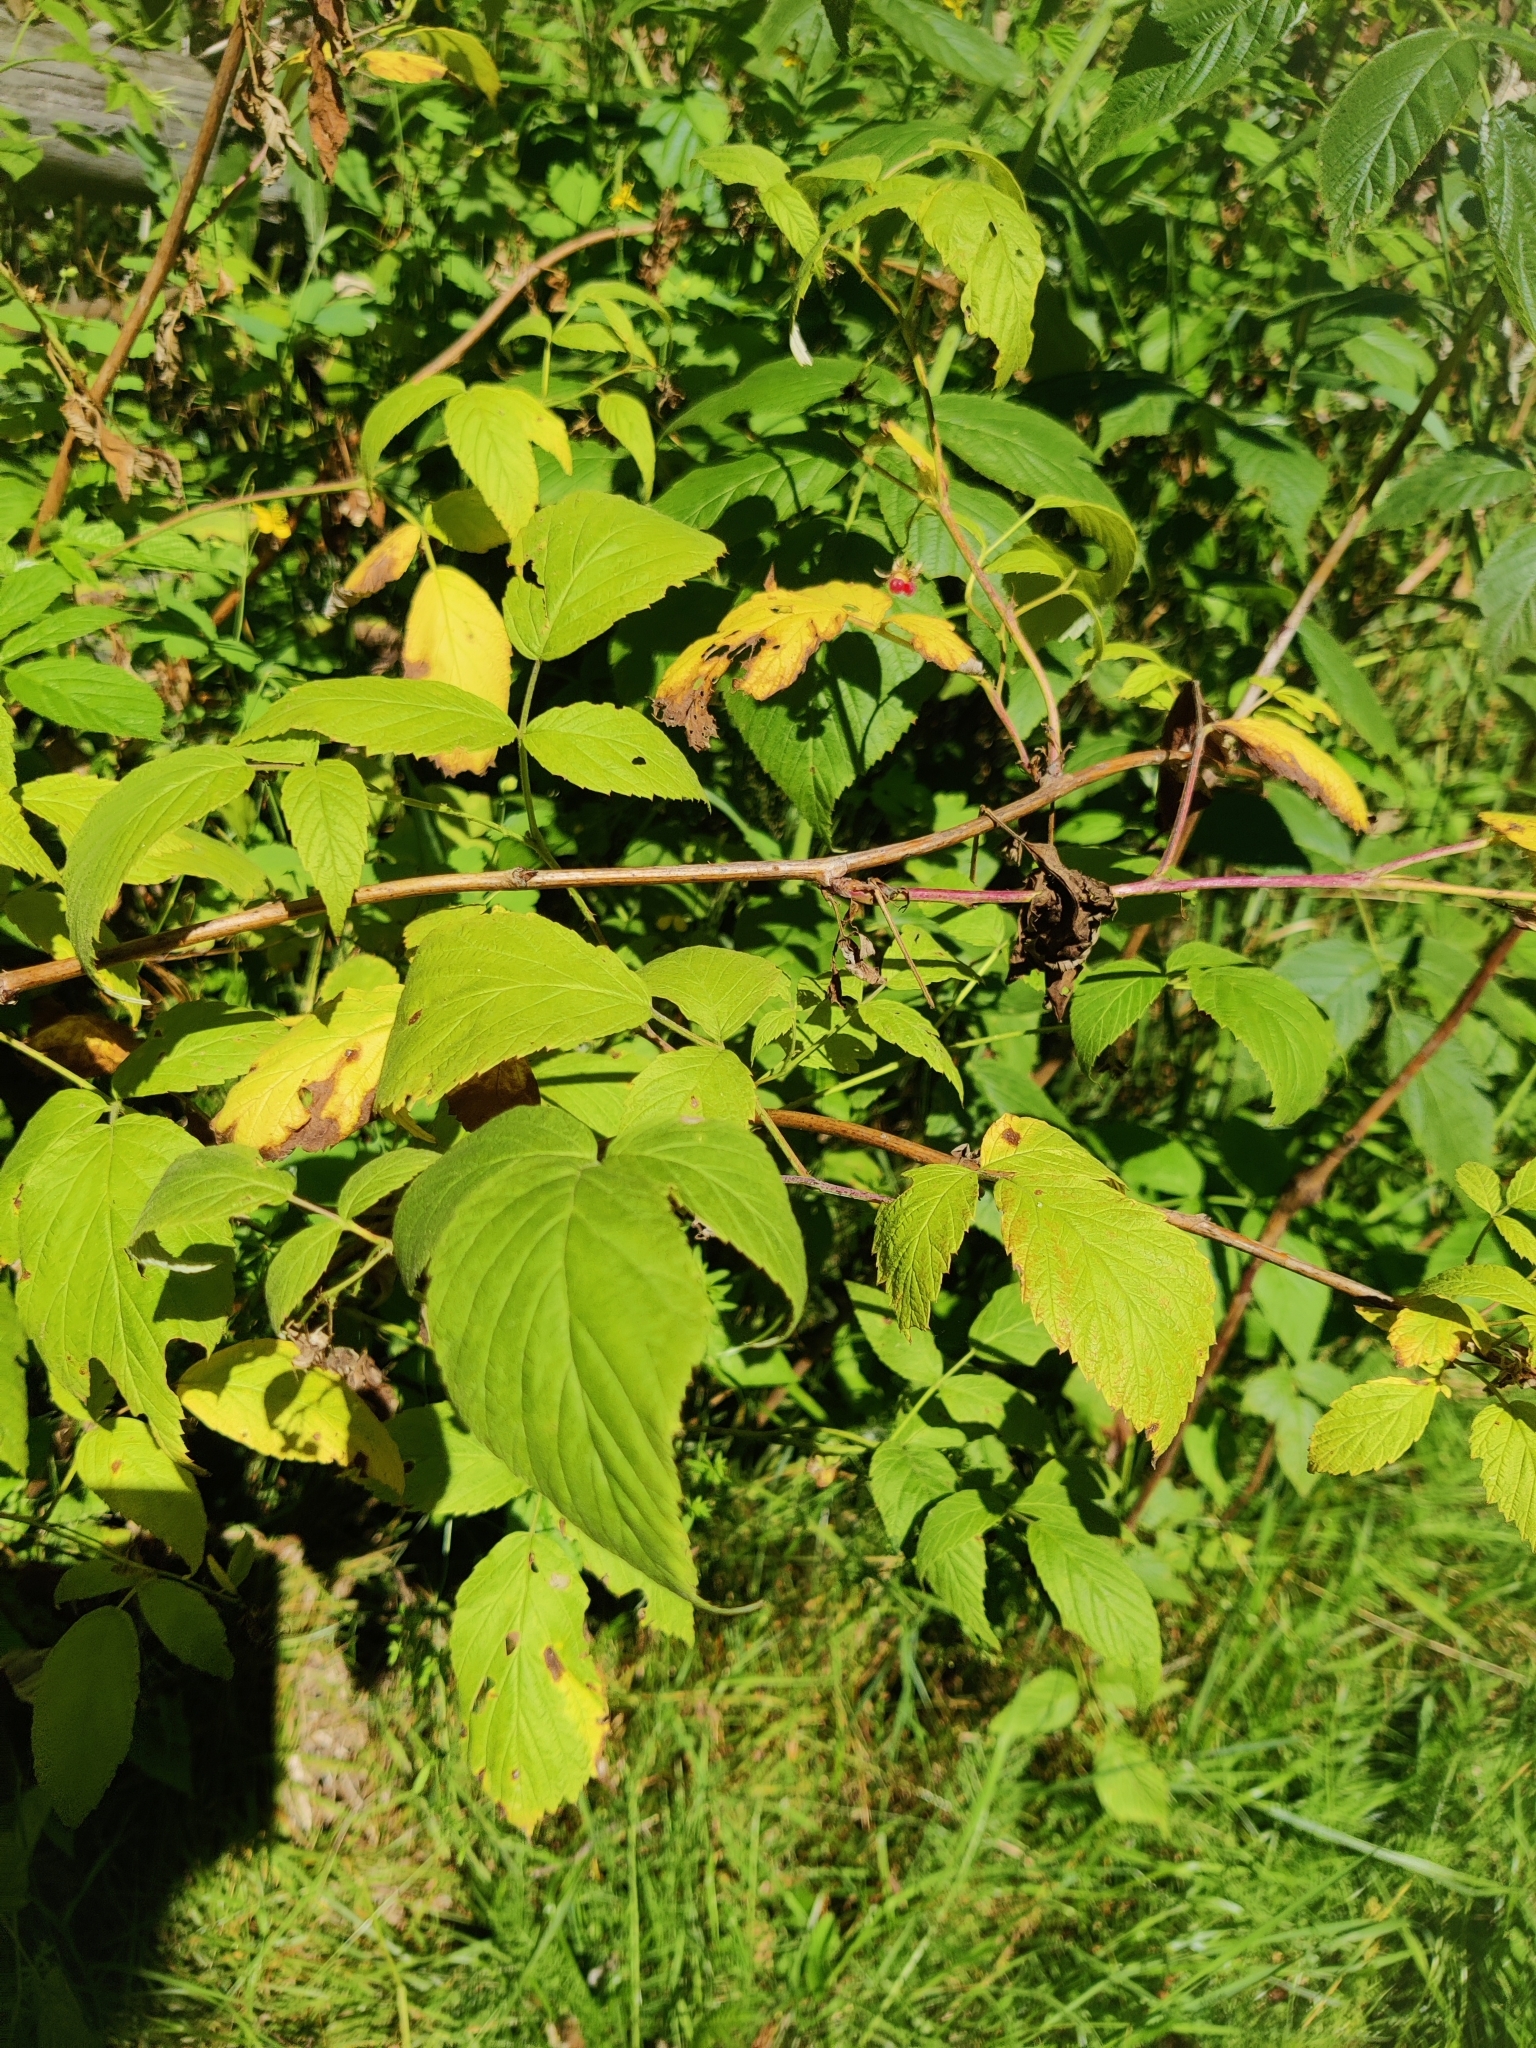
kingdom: Plantae
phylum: Tracheophyta
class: Magnoliopsida
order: Rosales
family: Rosaceae
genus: Rubus
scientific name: Rubus idaeus
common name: Raspberry
